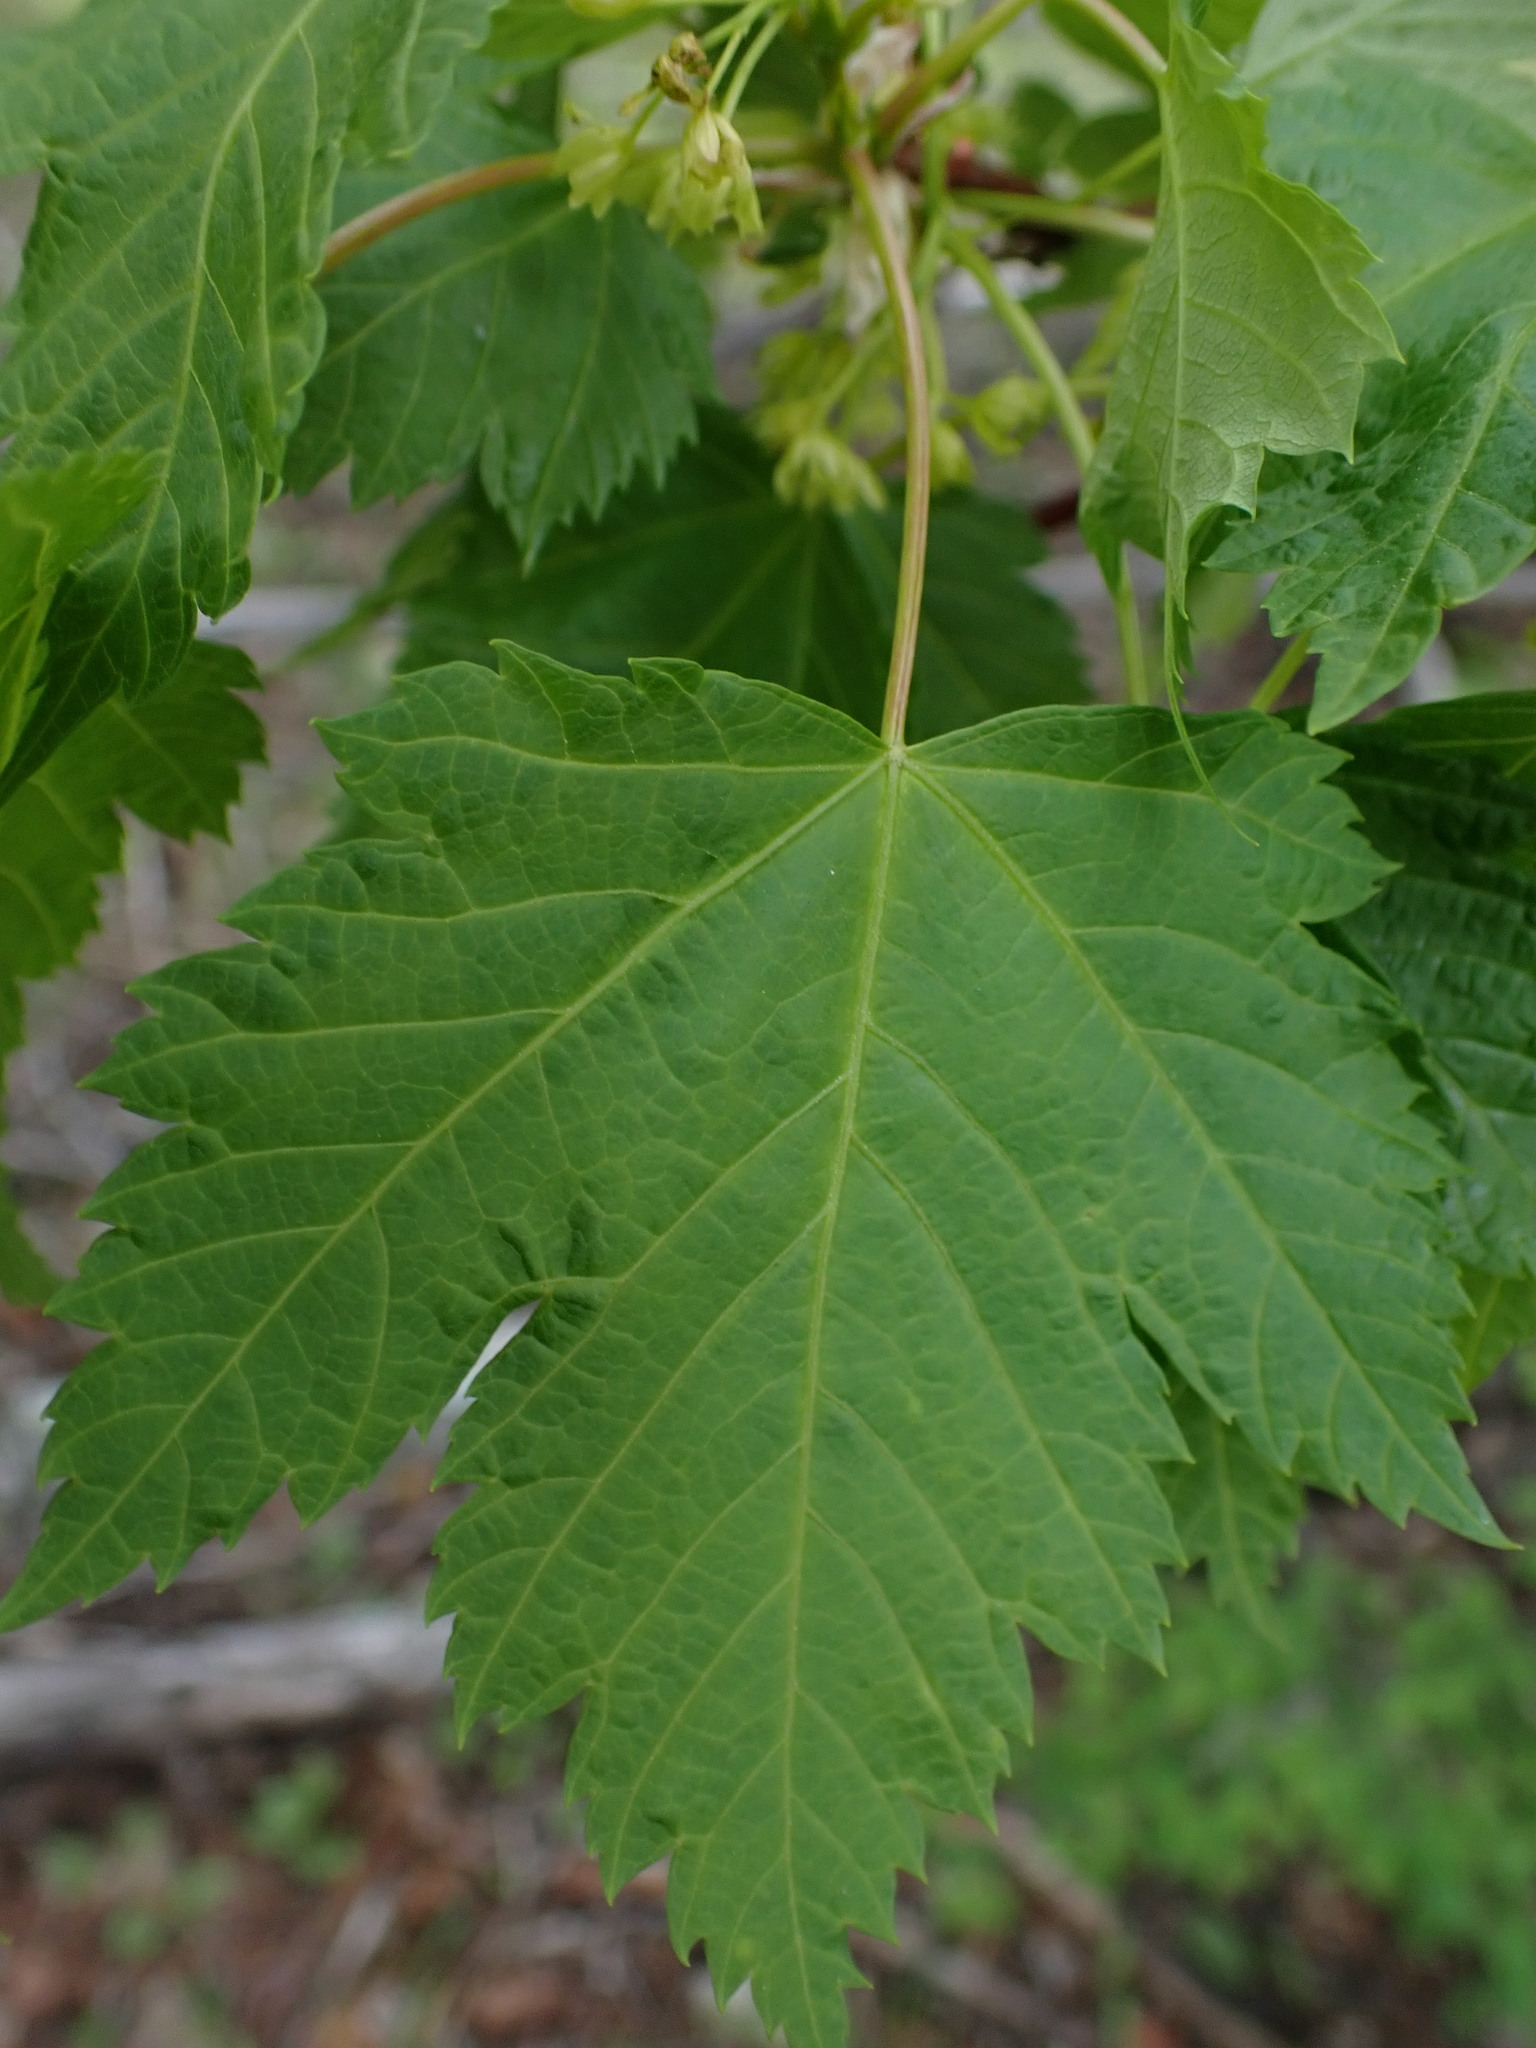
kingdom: Plantae
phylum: Tracheophyta
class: Magnoliopsida
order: Sapindales
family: Sapindaceae
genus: Acer
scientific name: Acer glabrum
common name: Rocky mountain maple
